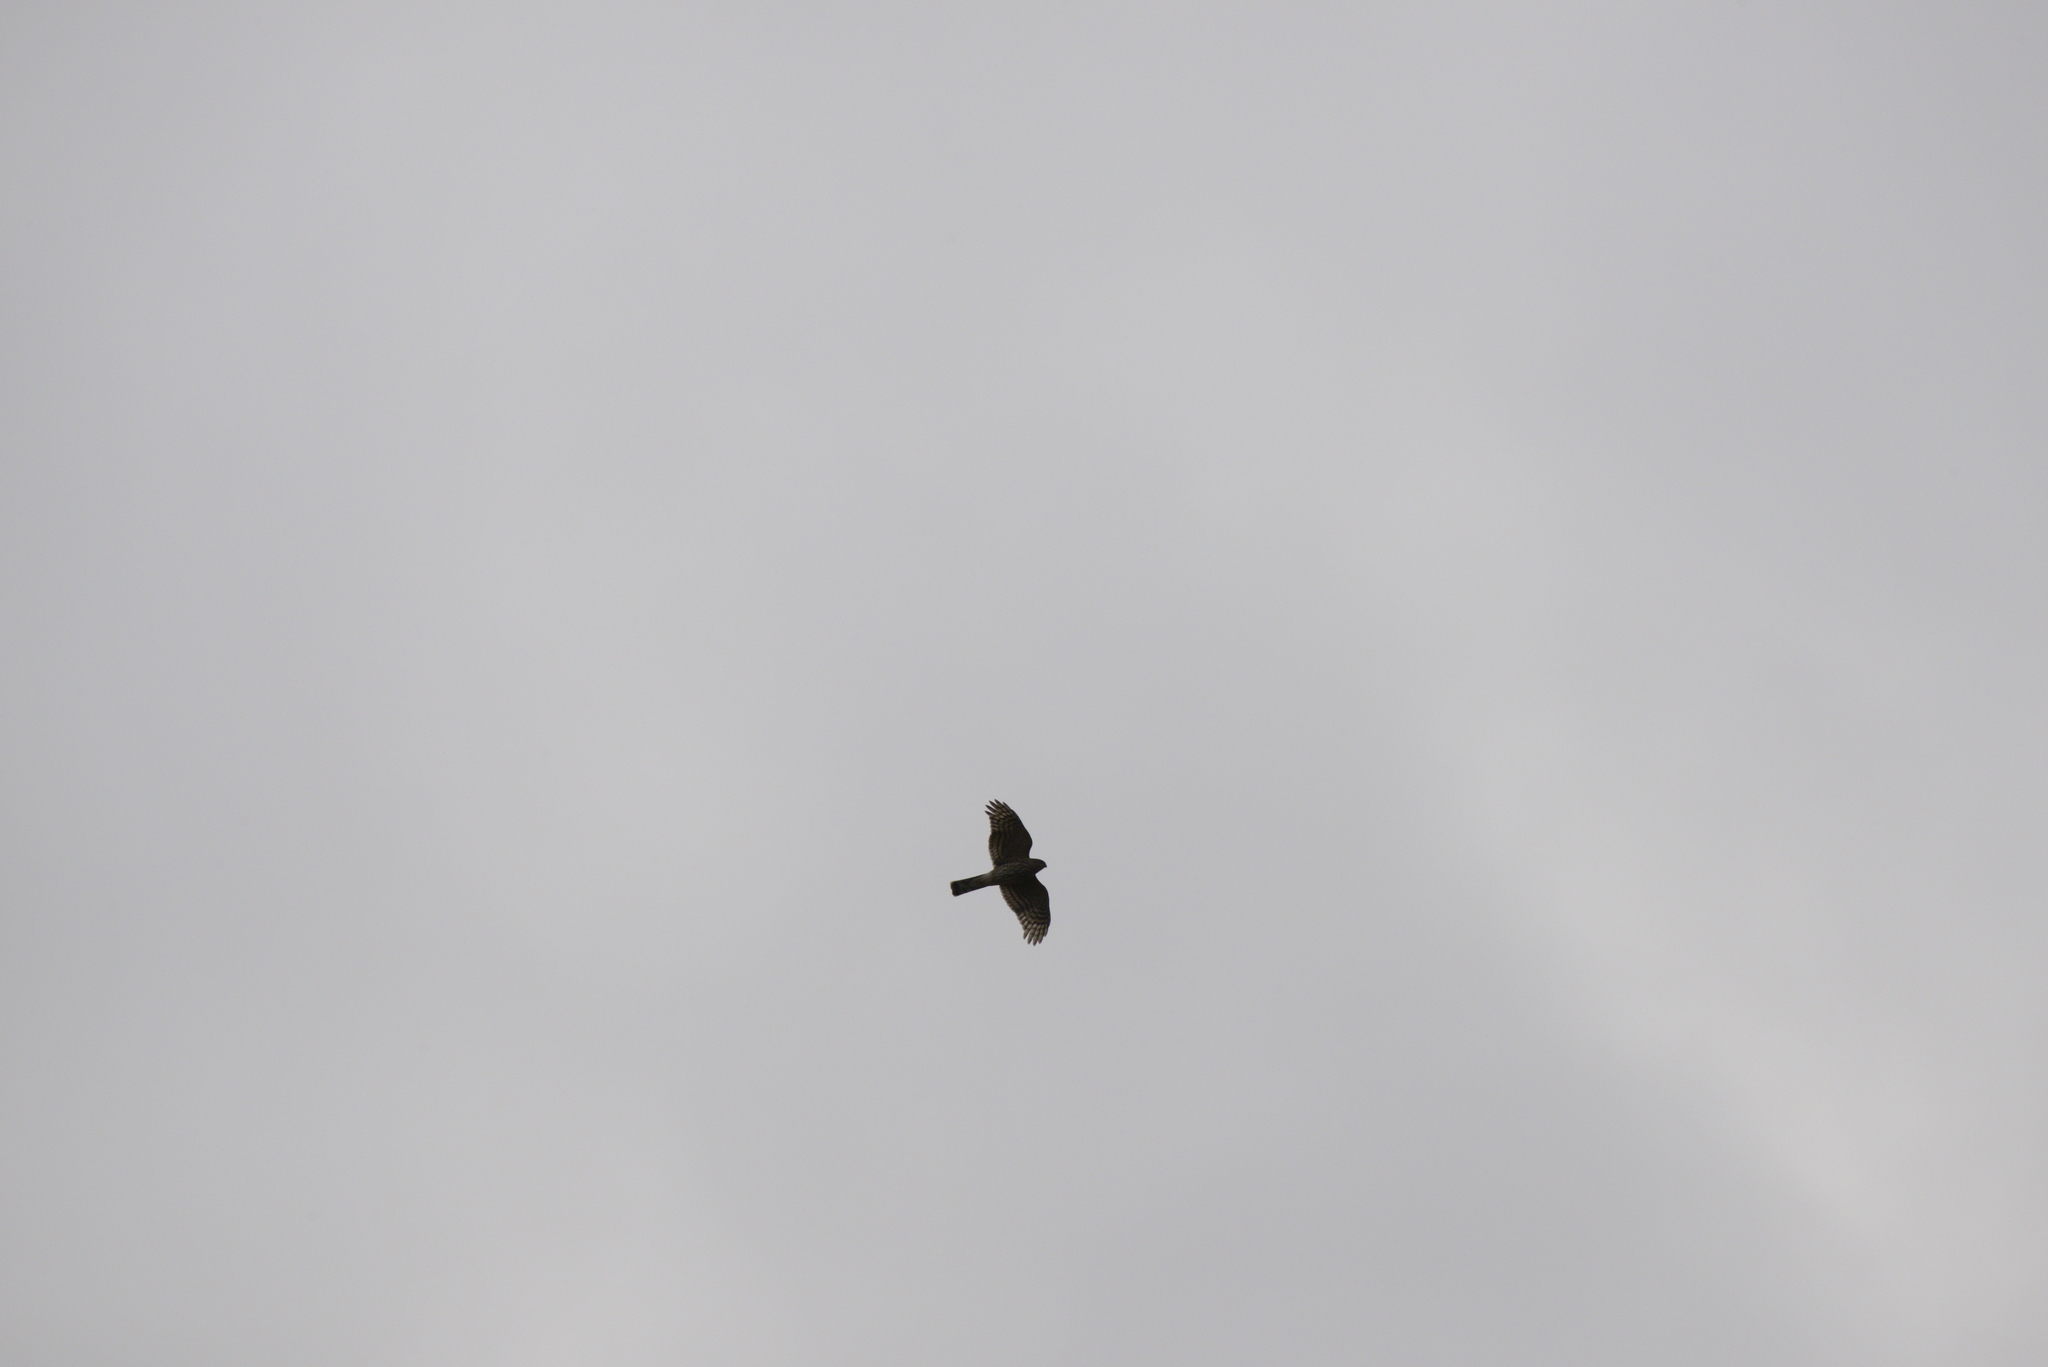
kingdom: Animalia
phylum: Chordata
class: Aves
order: Accipitriformes
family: Accipitridae
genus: Accipiter
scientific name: Accipiter striatus
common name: Sharp-shinned hawk
